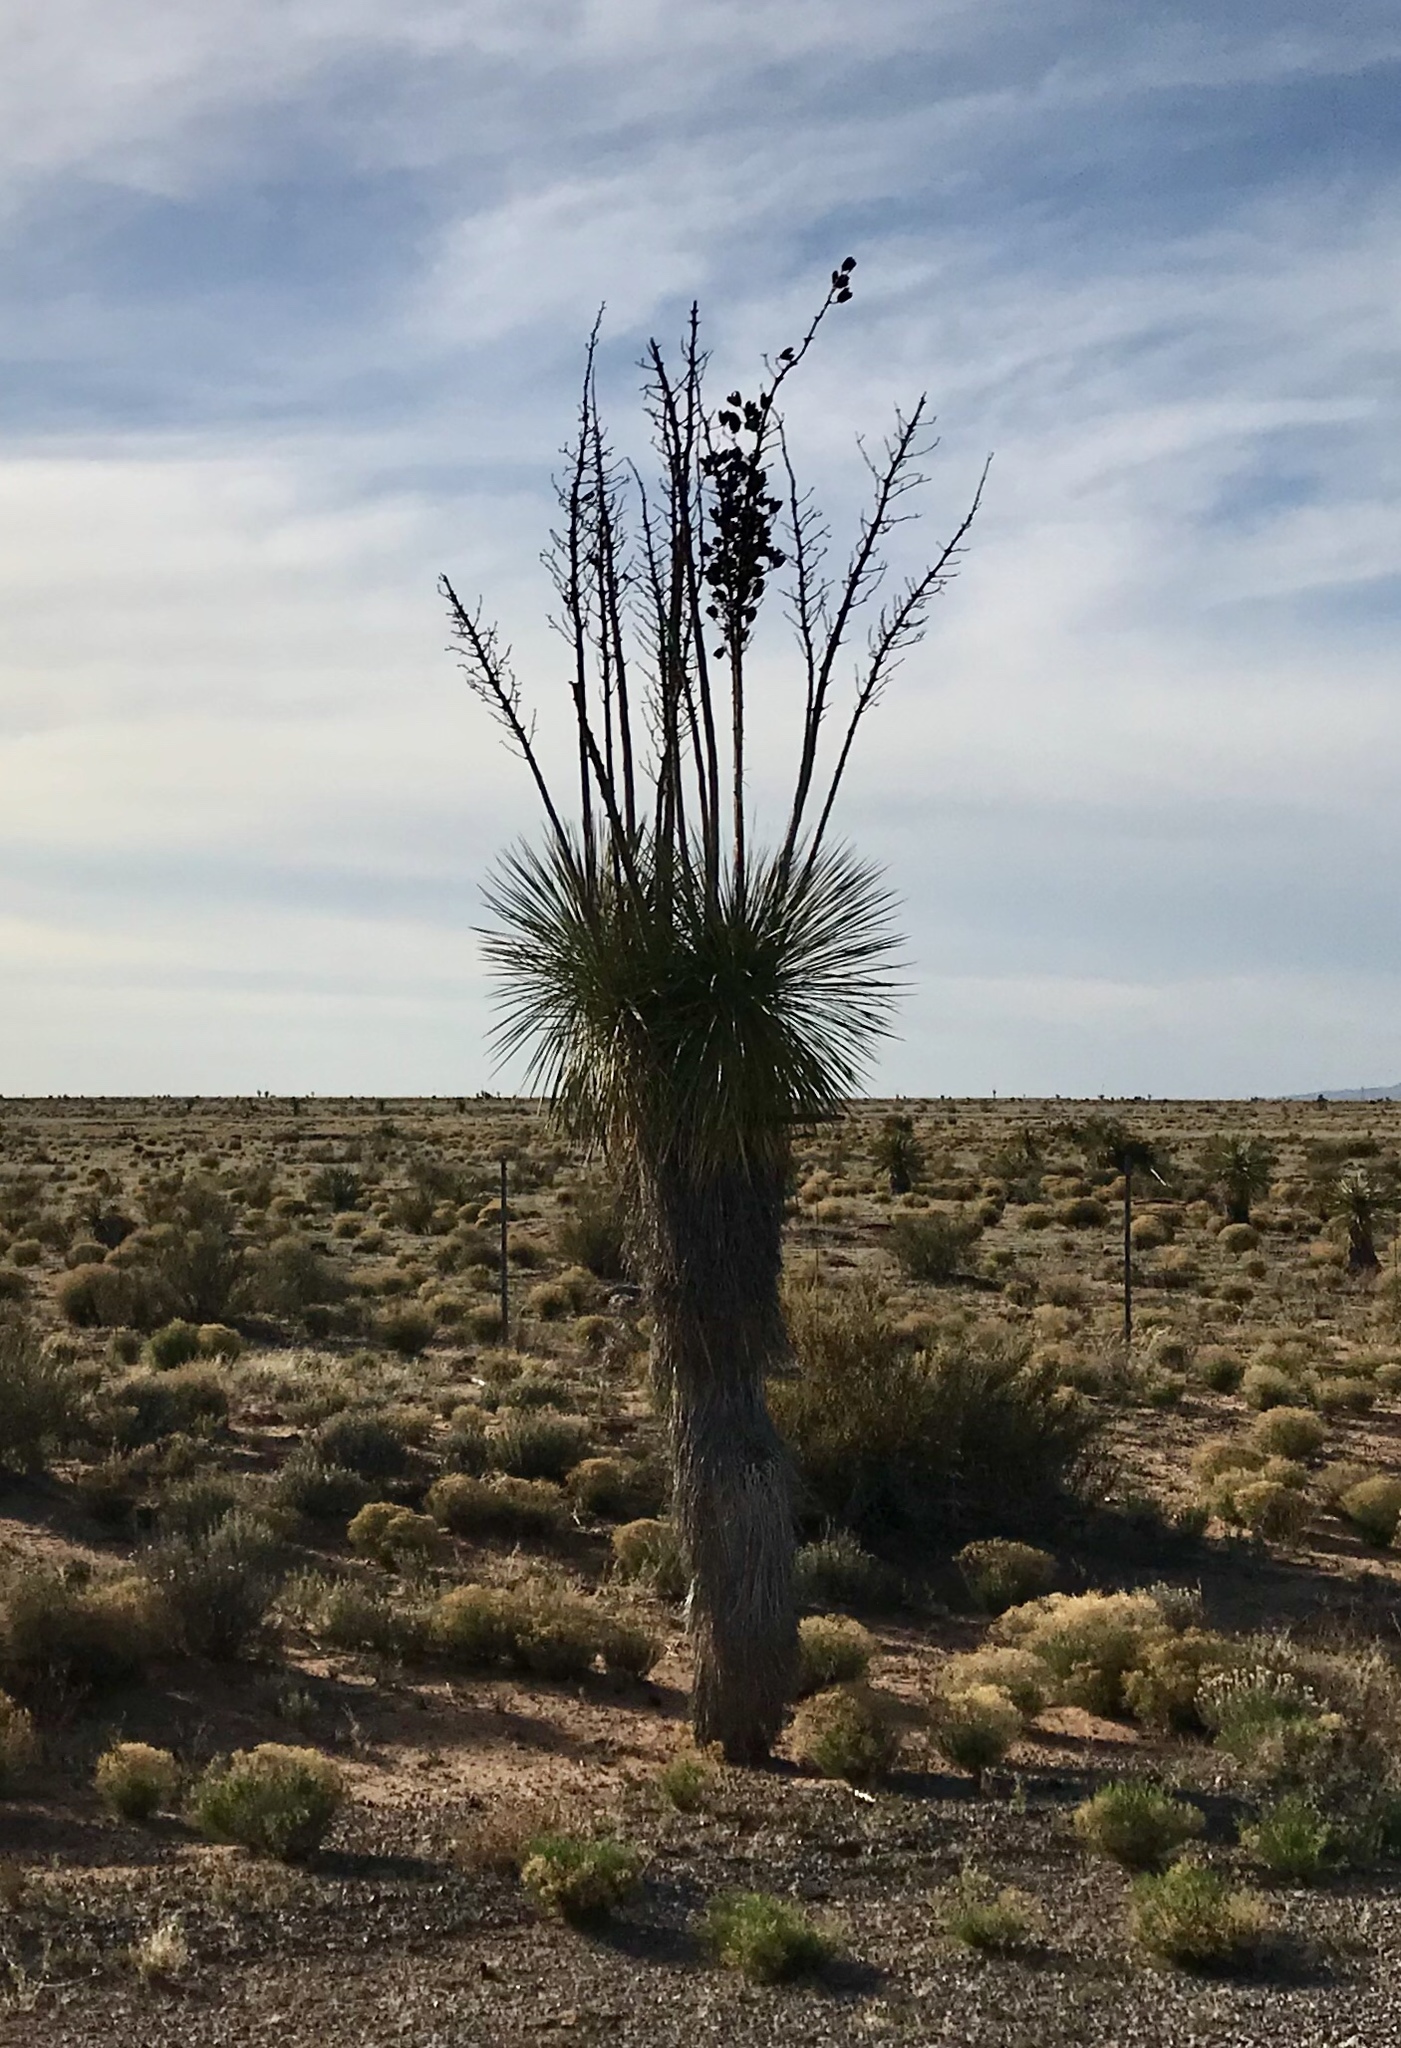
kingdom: Plantae
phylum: Tracheophyta
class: Liliopsida
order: Asparagales
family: Asparagaceae
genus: Yucca
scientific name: Yucca elata
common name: Palmella
